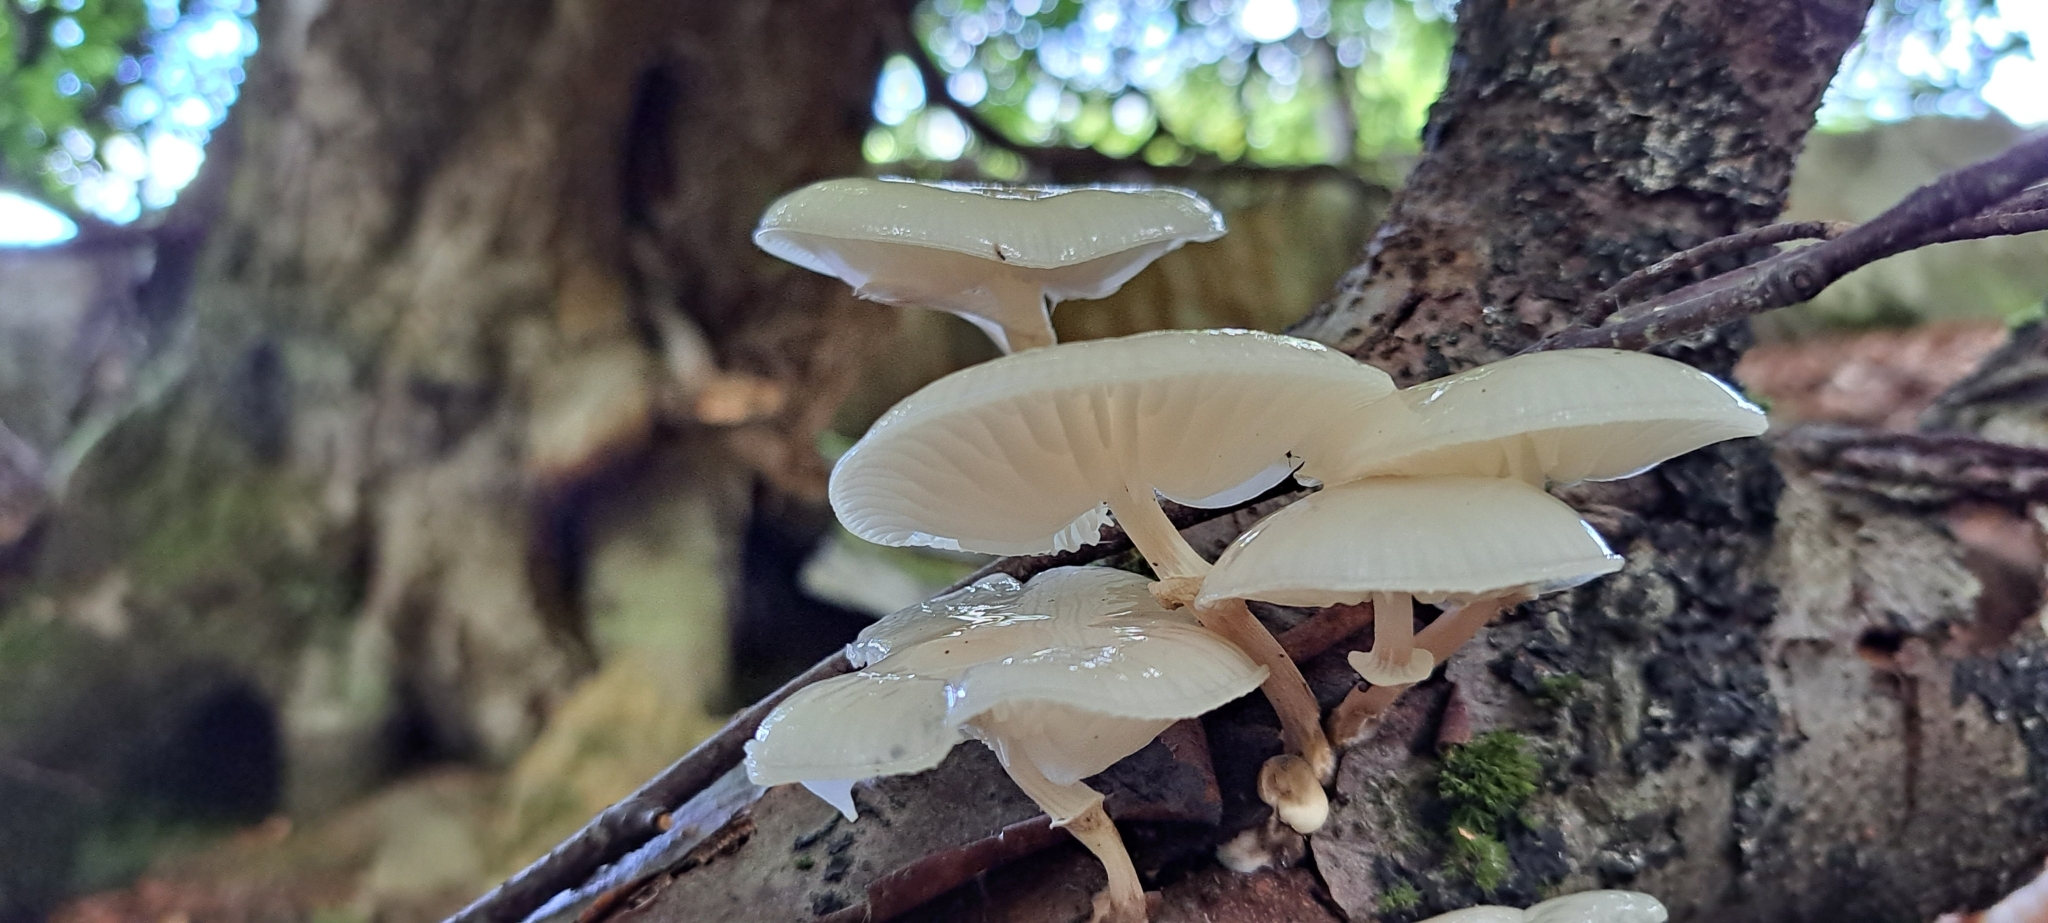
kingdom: Fungi
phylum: Basidiomycota
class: Agaricomycetes
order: Agaricales
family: Physalacriaceae
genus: Mucidula
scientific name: Mucidula mucida
